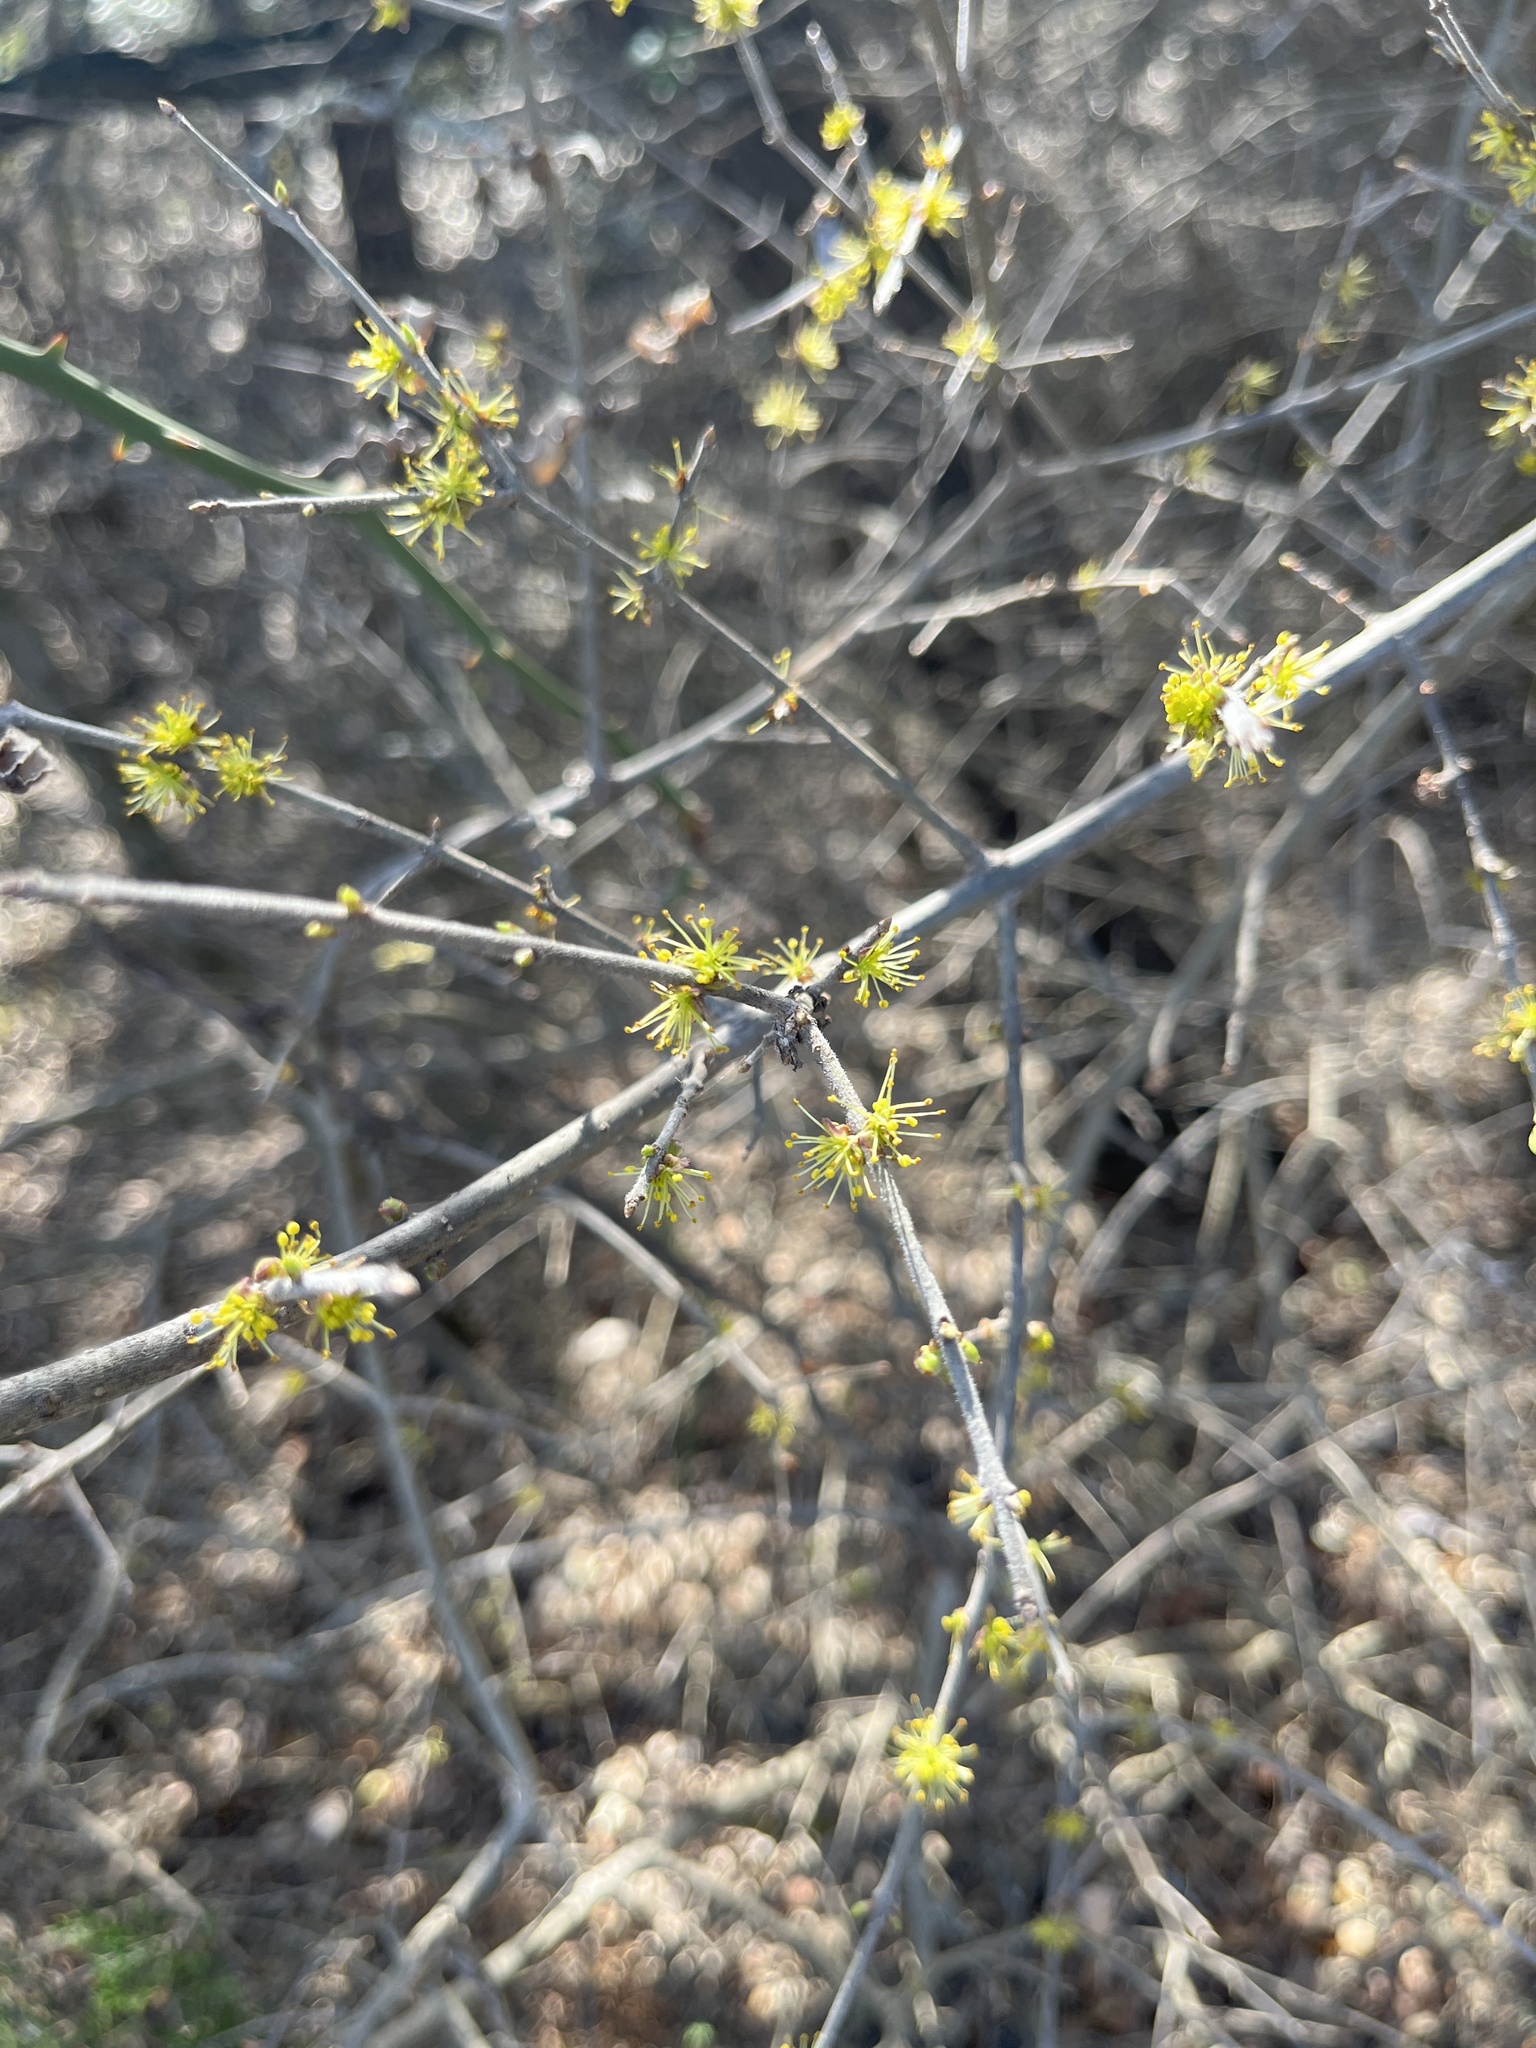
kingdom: Plantae
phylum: Tracheophyta
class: Magnoliopsida
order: Lamiales
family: Oleaceae
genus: Forestiera
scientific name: Forestiera pubescens
